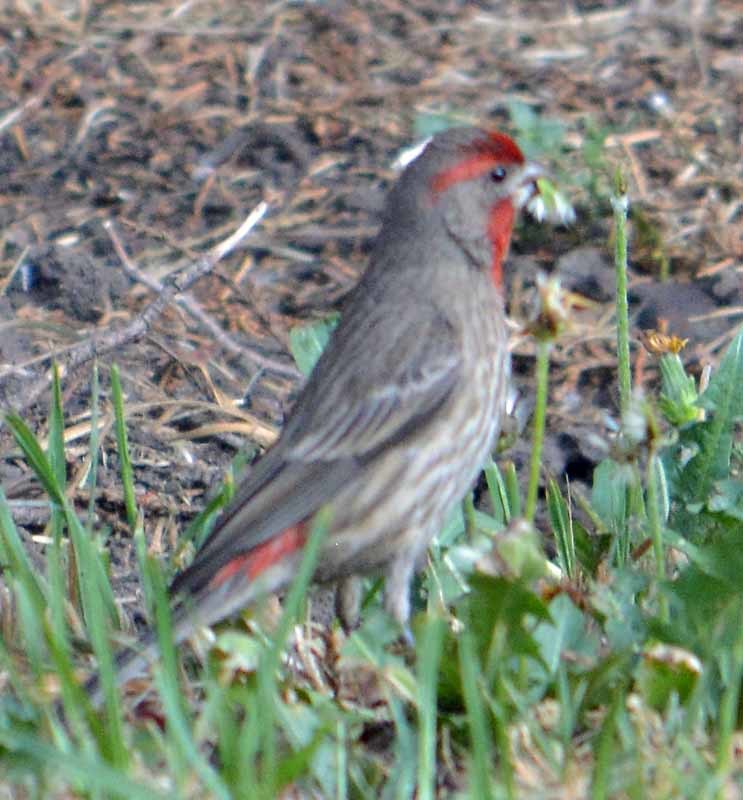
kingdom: Animalia
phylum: Chordata
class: Aves
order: Passeriformes
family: Fringillidae
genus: Haemorhous
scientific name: Haemorhous mexicanus
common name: House finch
